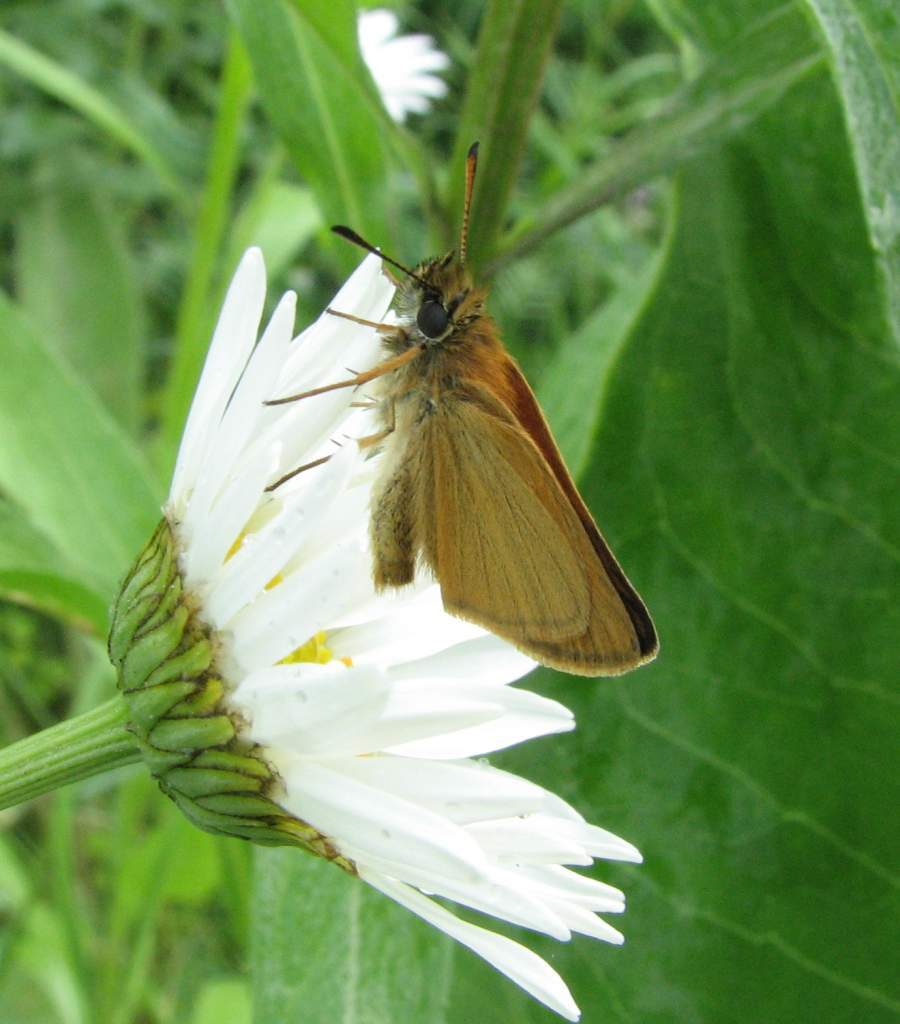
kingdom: Animalia
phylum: Arthropoda
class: Insecta
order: Lepidoptera
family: Hesperiidae
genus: Thymelicus
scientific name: Thymelicus lineola
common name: Essex skipper
